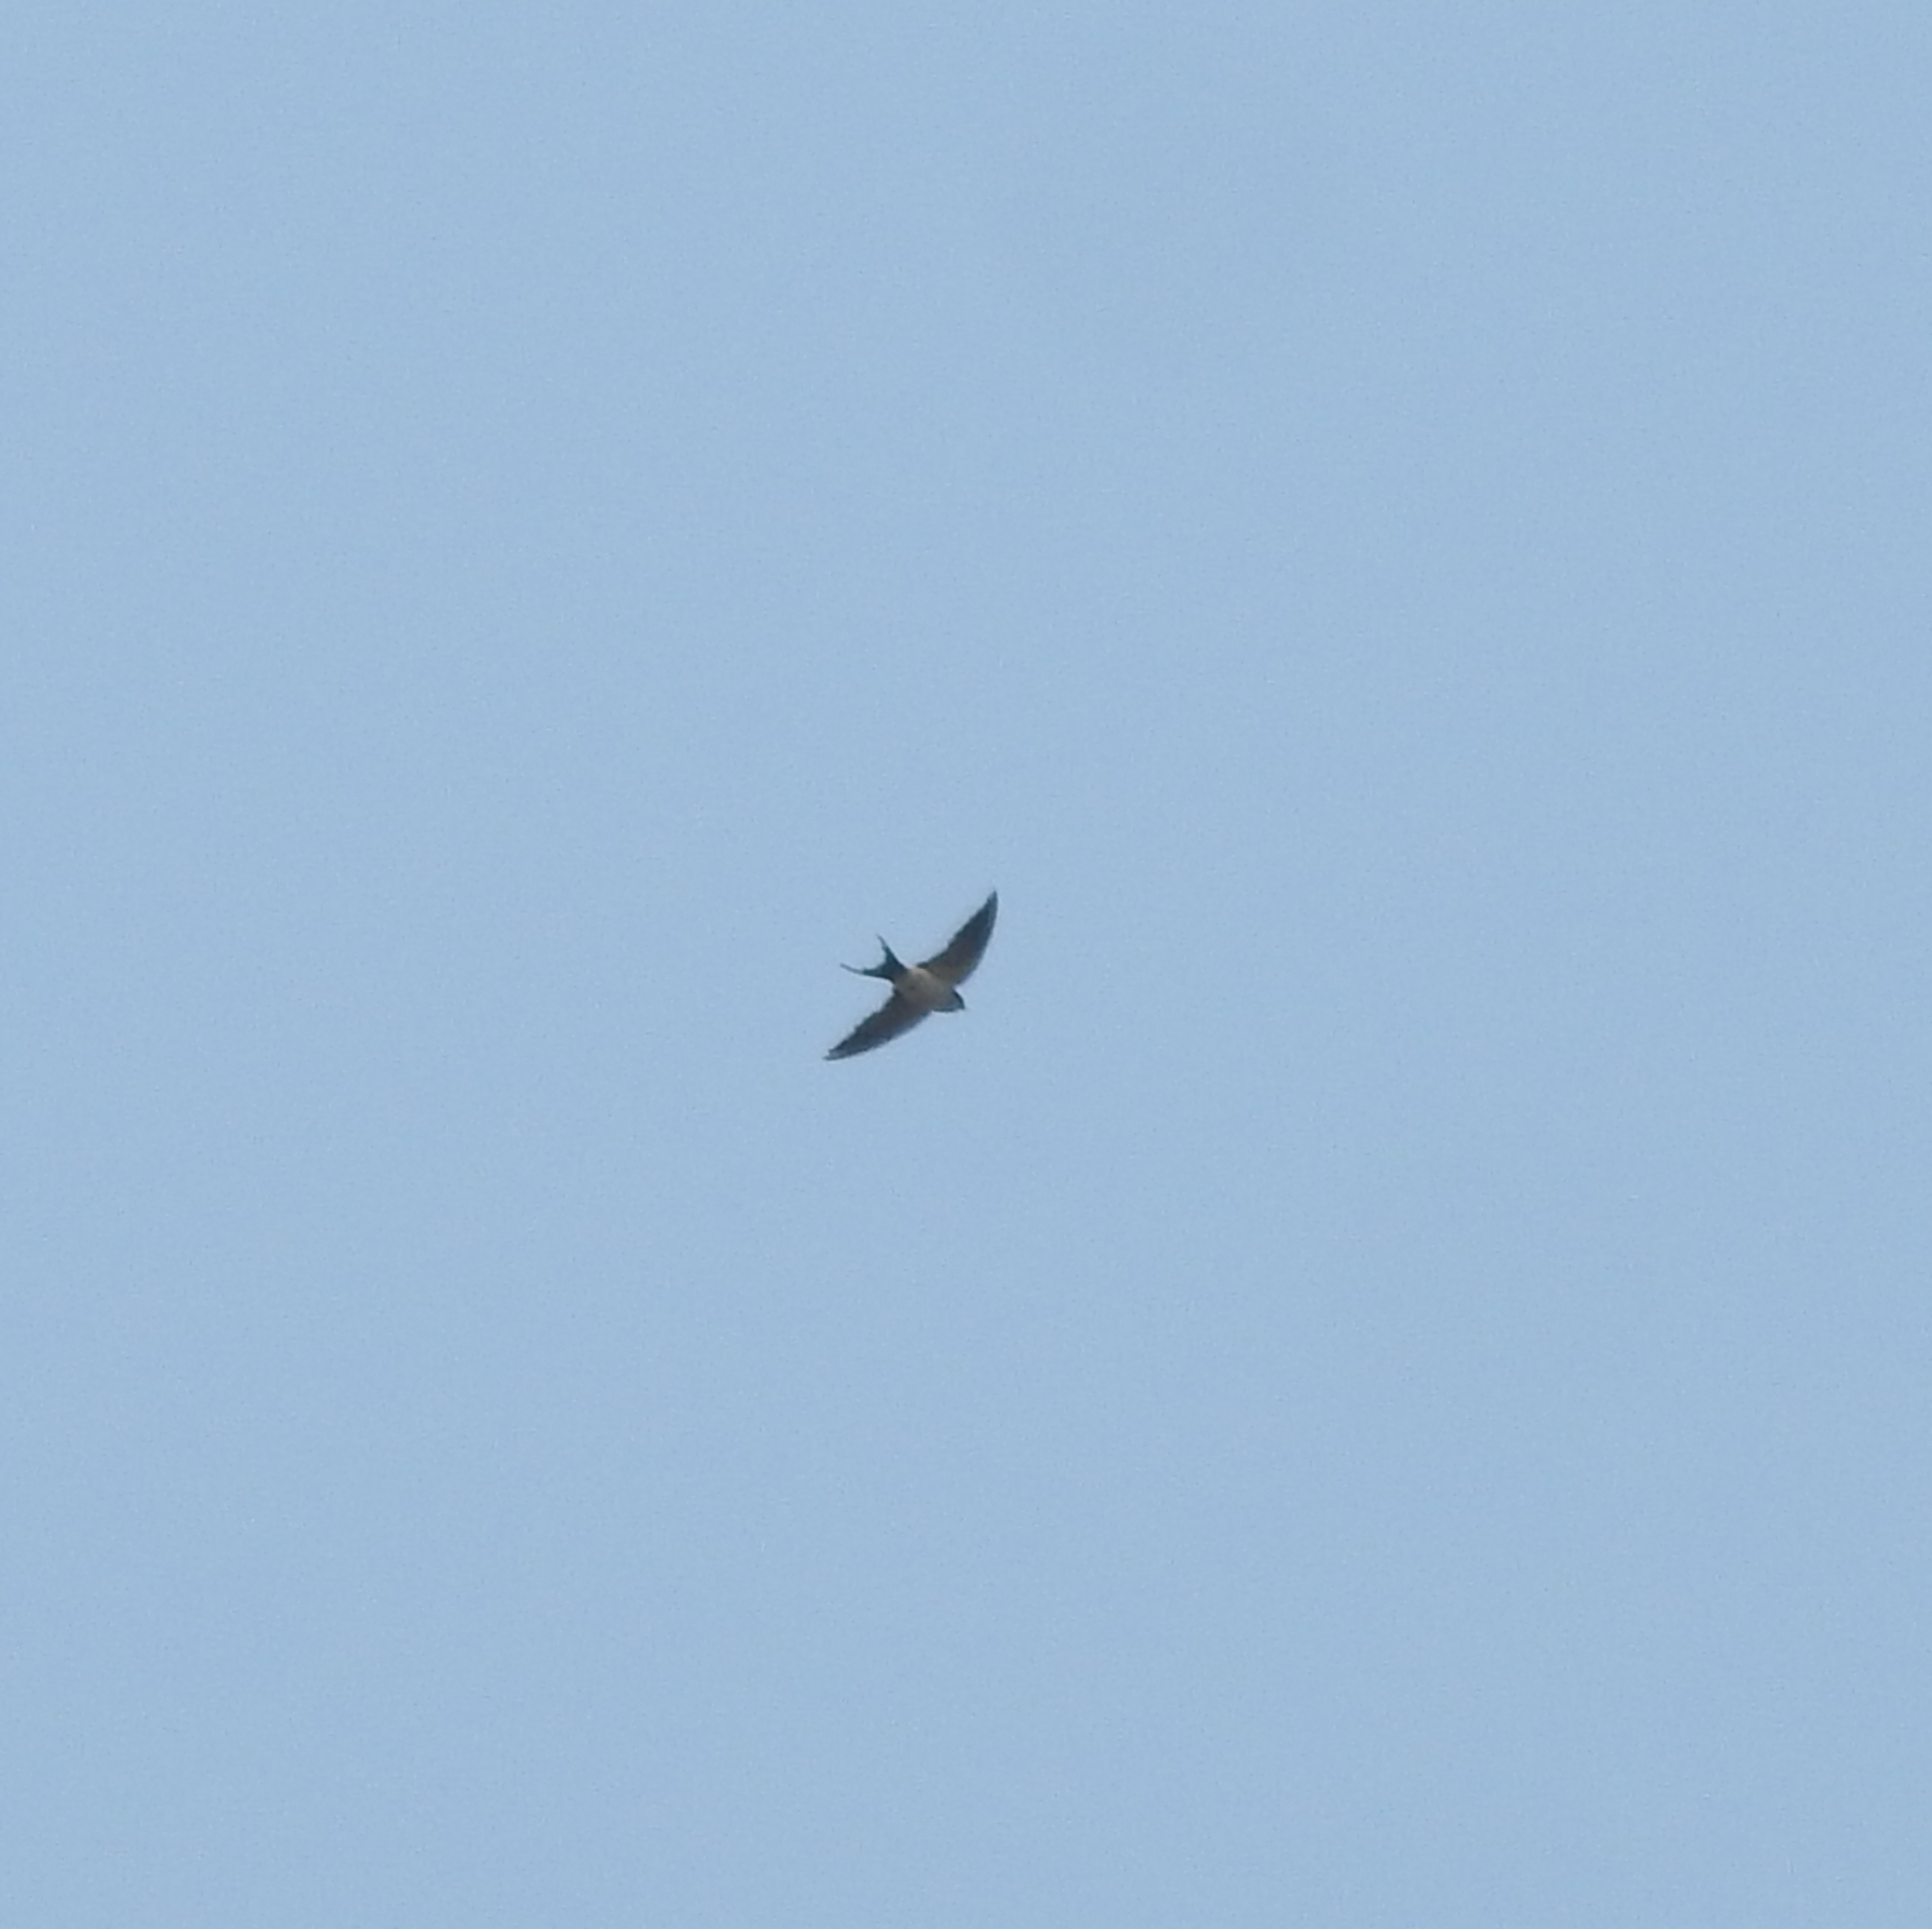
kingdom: Animalia
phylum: Chordata
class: Aves
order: Passeriformes
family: Hirundinidae
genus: Cecropis
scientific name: Cecropis daurica
